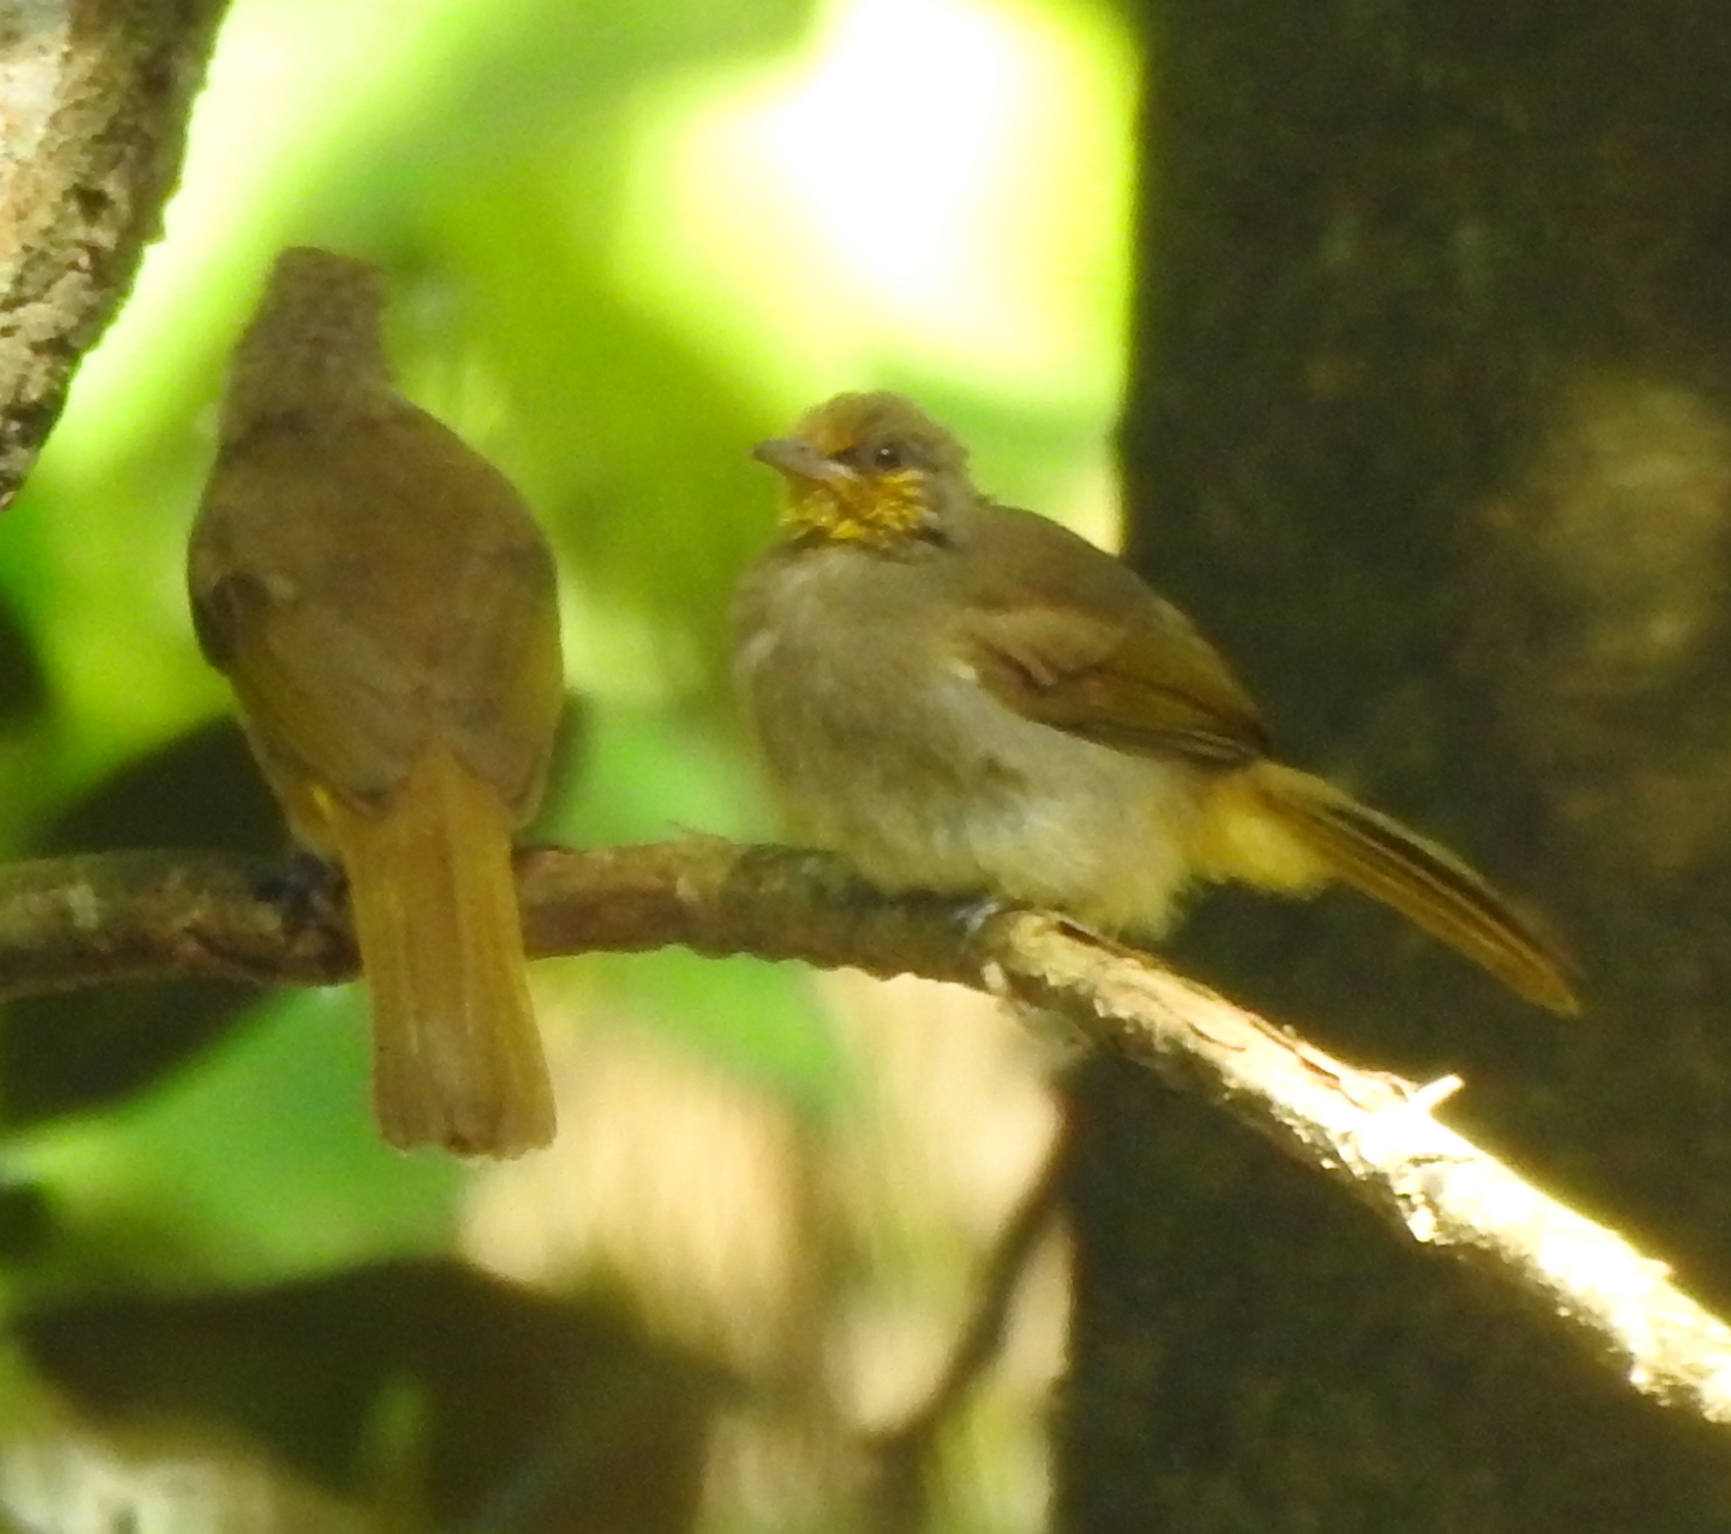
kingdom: Animalia
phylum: Chordata
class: Aves
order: Passeriformes
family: Pycnonotidae
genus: Pycnonotus
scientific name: Pycnonotus finlaysoni
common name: Stripe-throated bulbul
